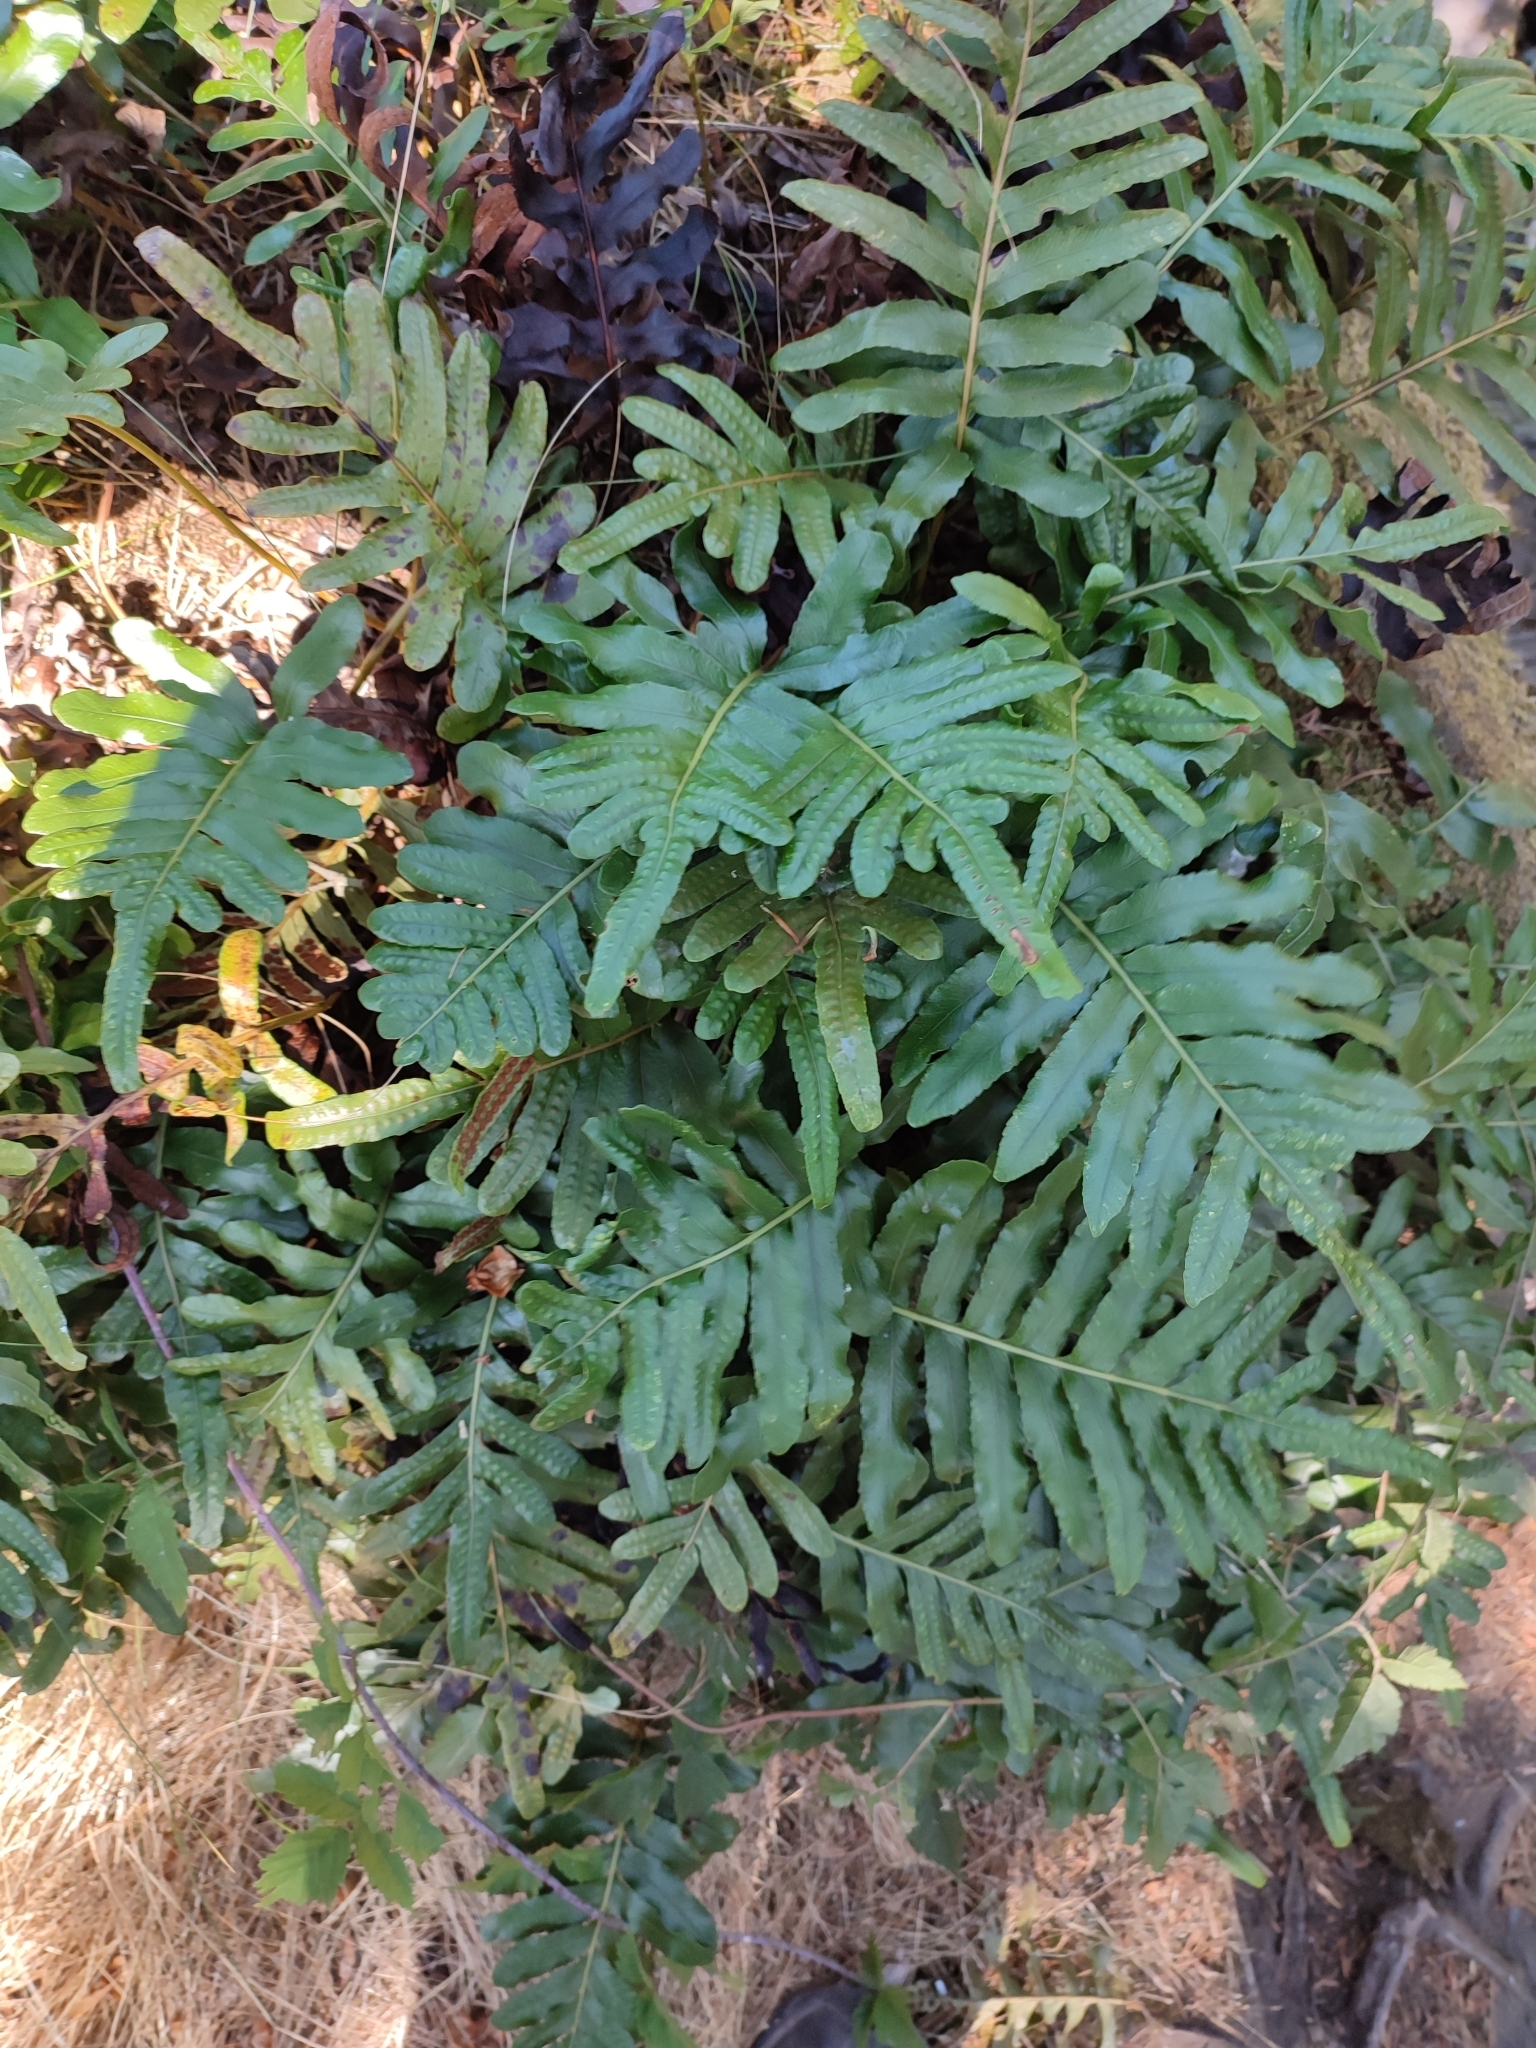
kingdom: Plantae
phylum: Tracheophyta
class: Polypodiopsida
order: Polypodiales
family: Polypodiaceae
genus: Polypodium
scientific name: Polypodium scouleri
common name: Scouler's polypody
